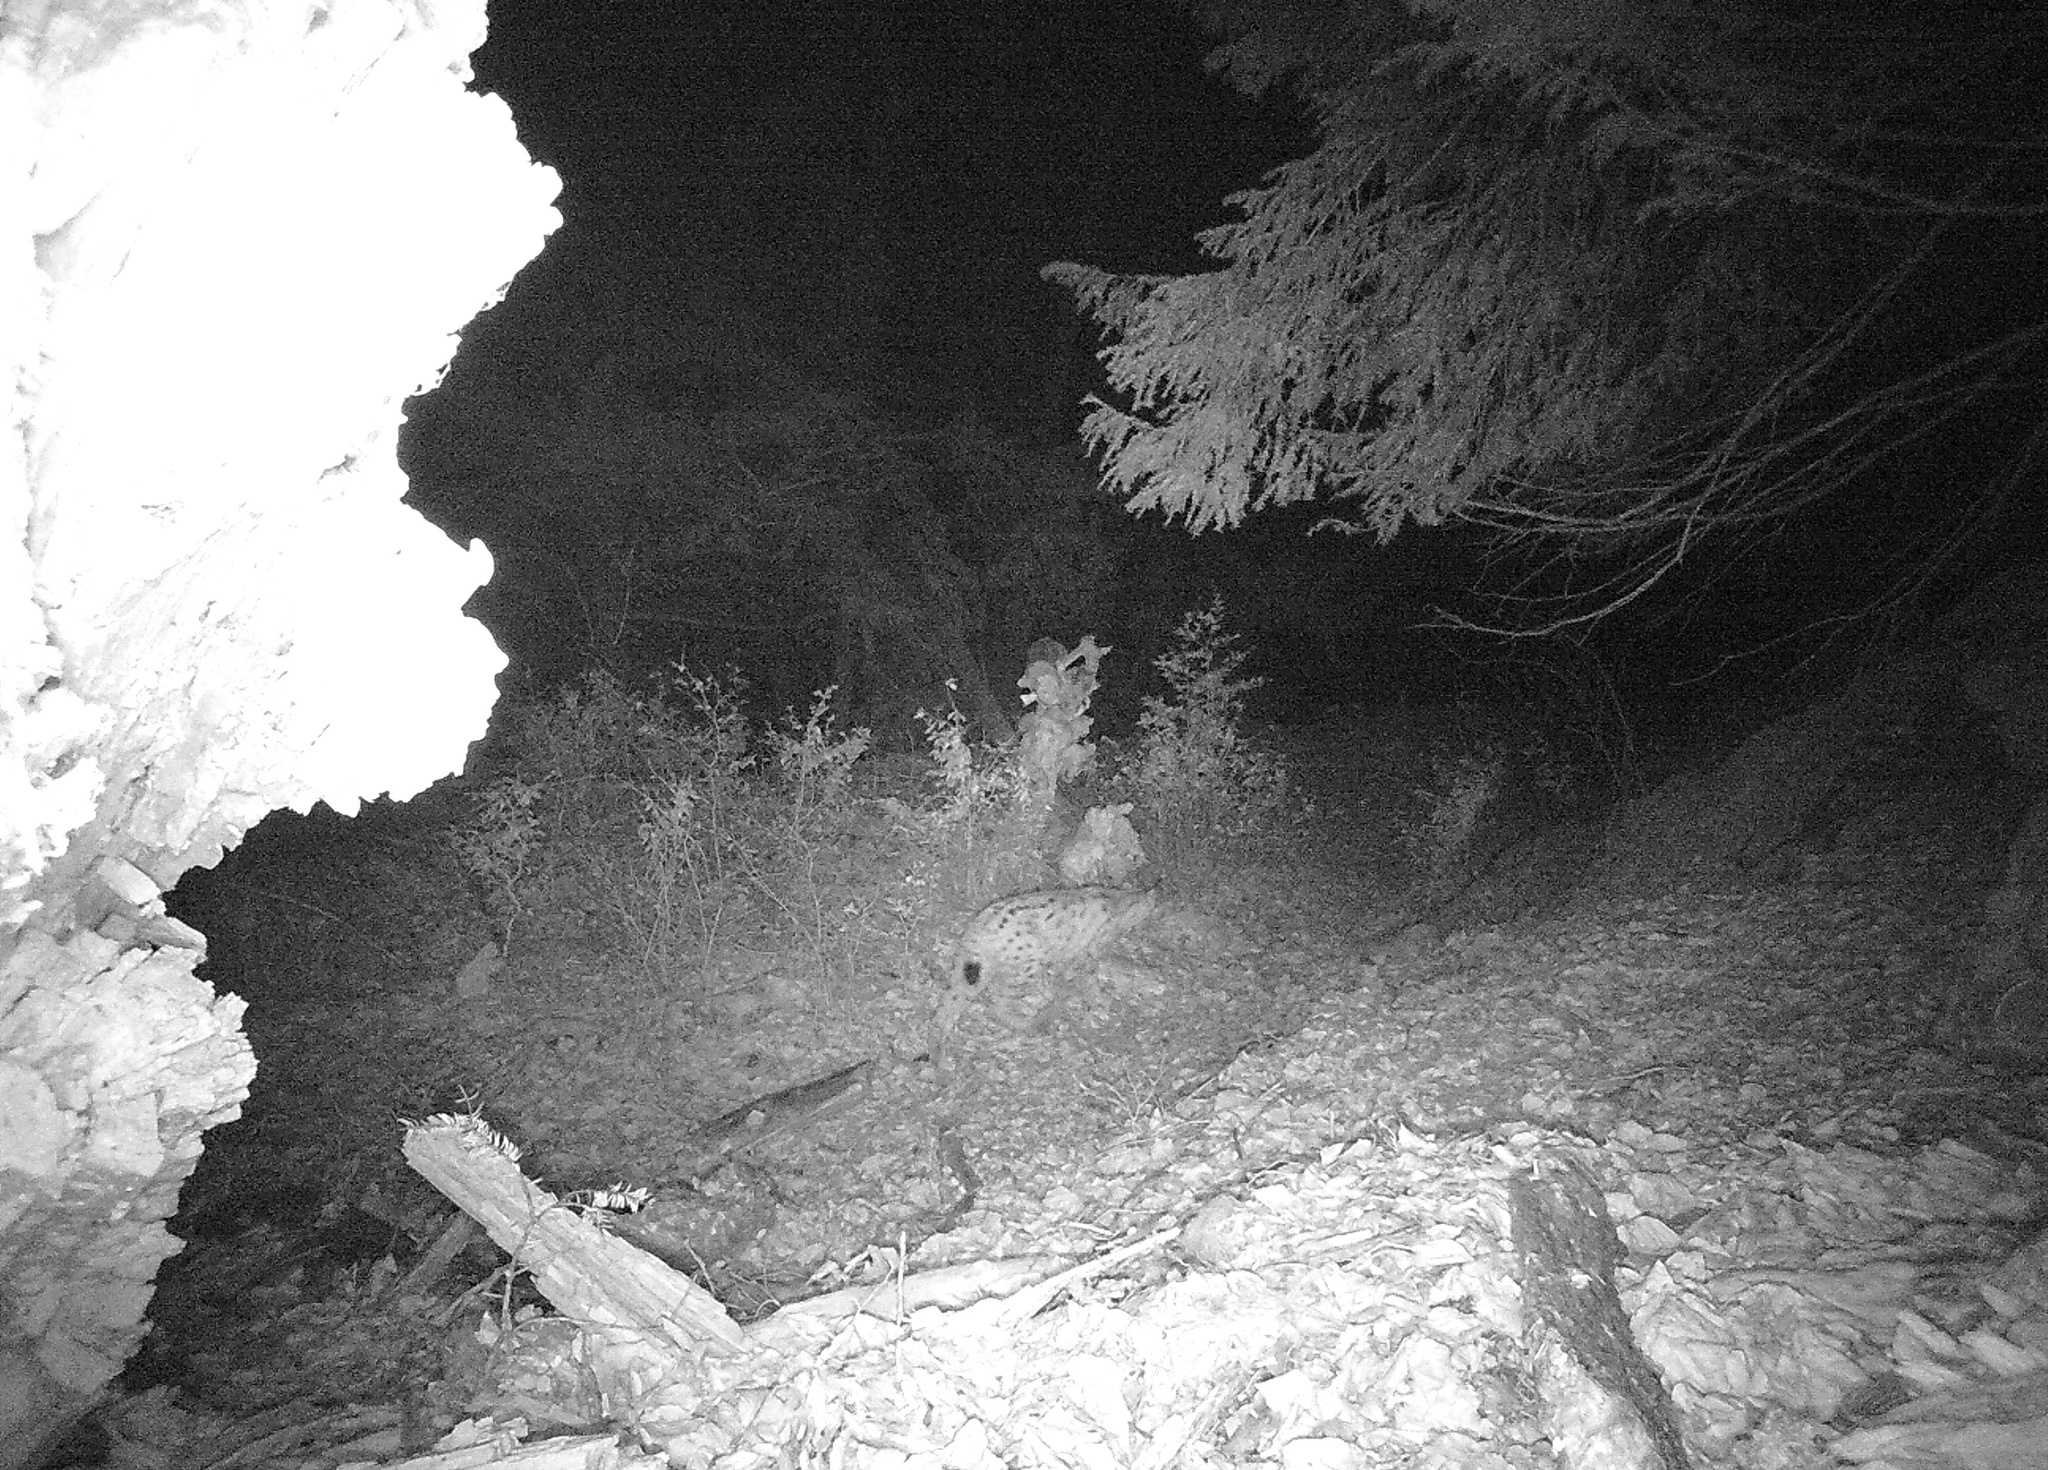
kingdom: Animalia
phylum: Chordata
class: Mammalia
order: Carnivora
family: Felidae
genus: Lynx
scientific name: Lynx lynx
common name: Eurasian lynx
